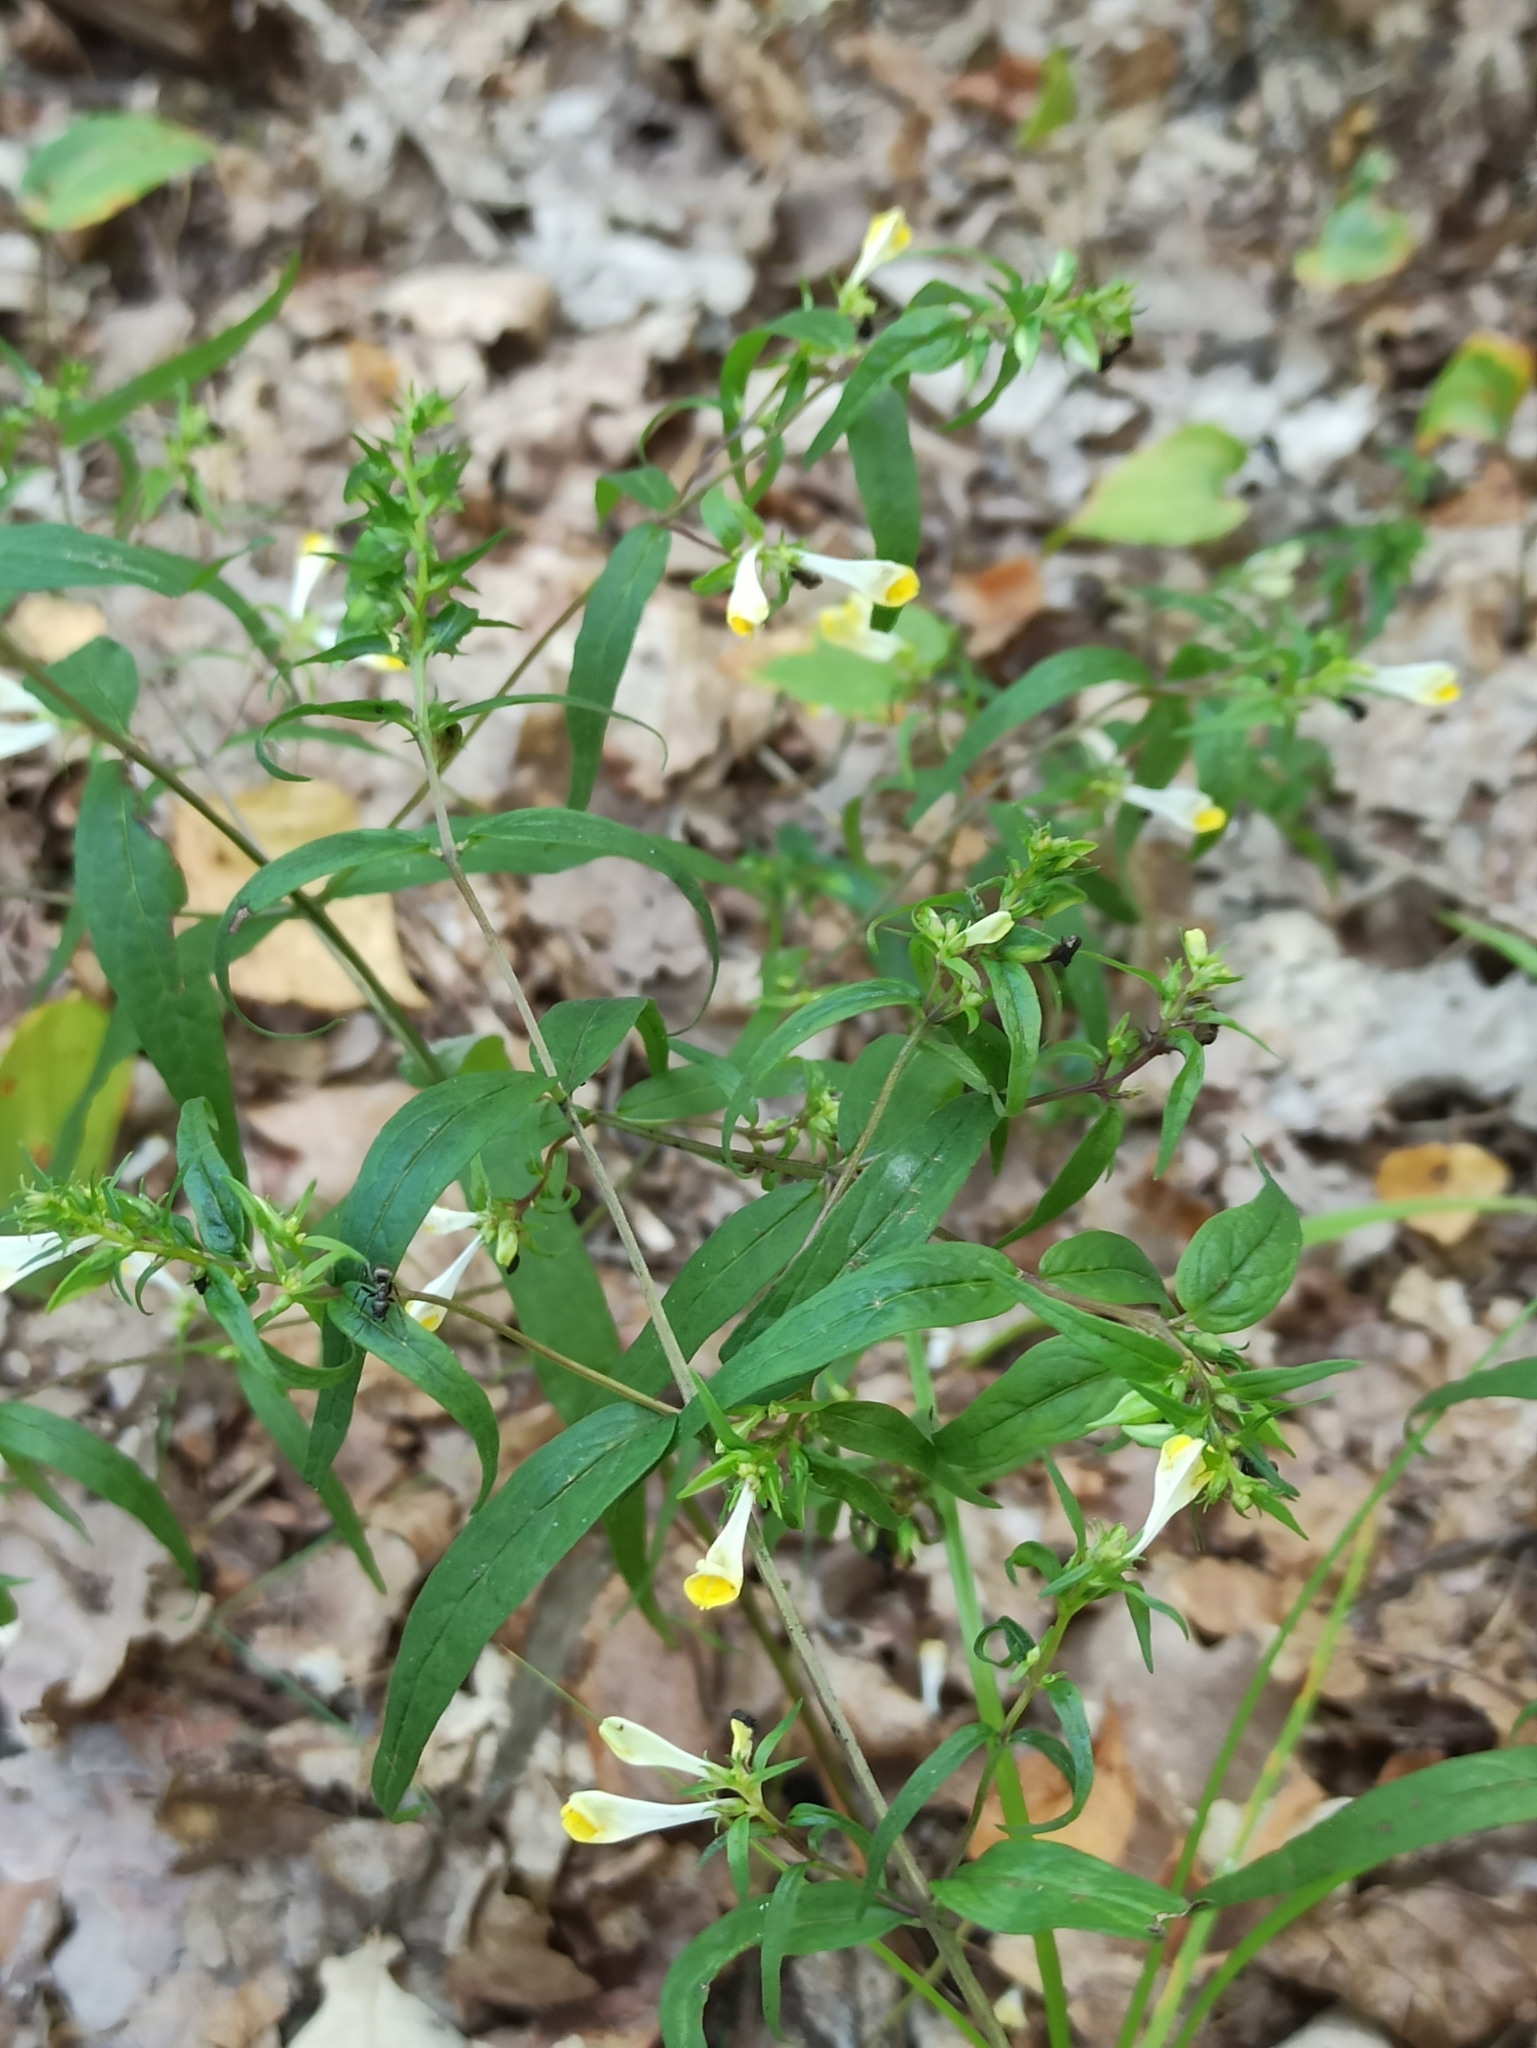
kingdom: Plantae
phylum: Tracheophyta
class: Magnoliopsida
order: Lamiales
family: Orobanchaceae
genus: Melampyrum
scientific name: Melampyrum pratense
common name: Common cow-wheat
